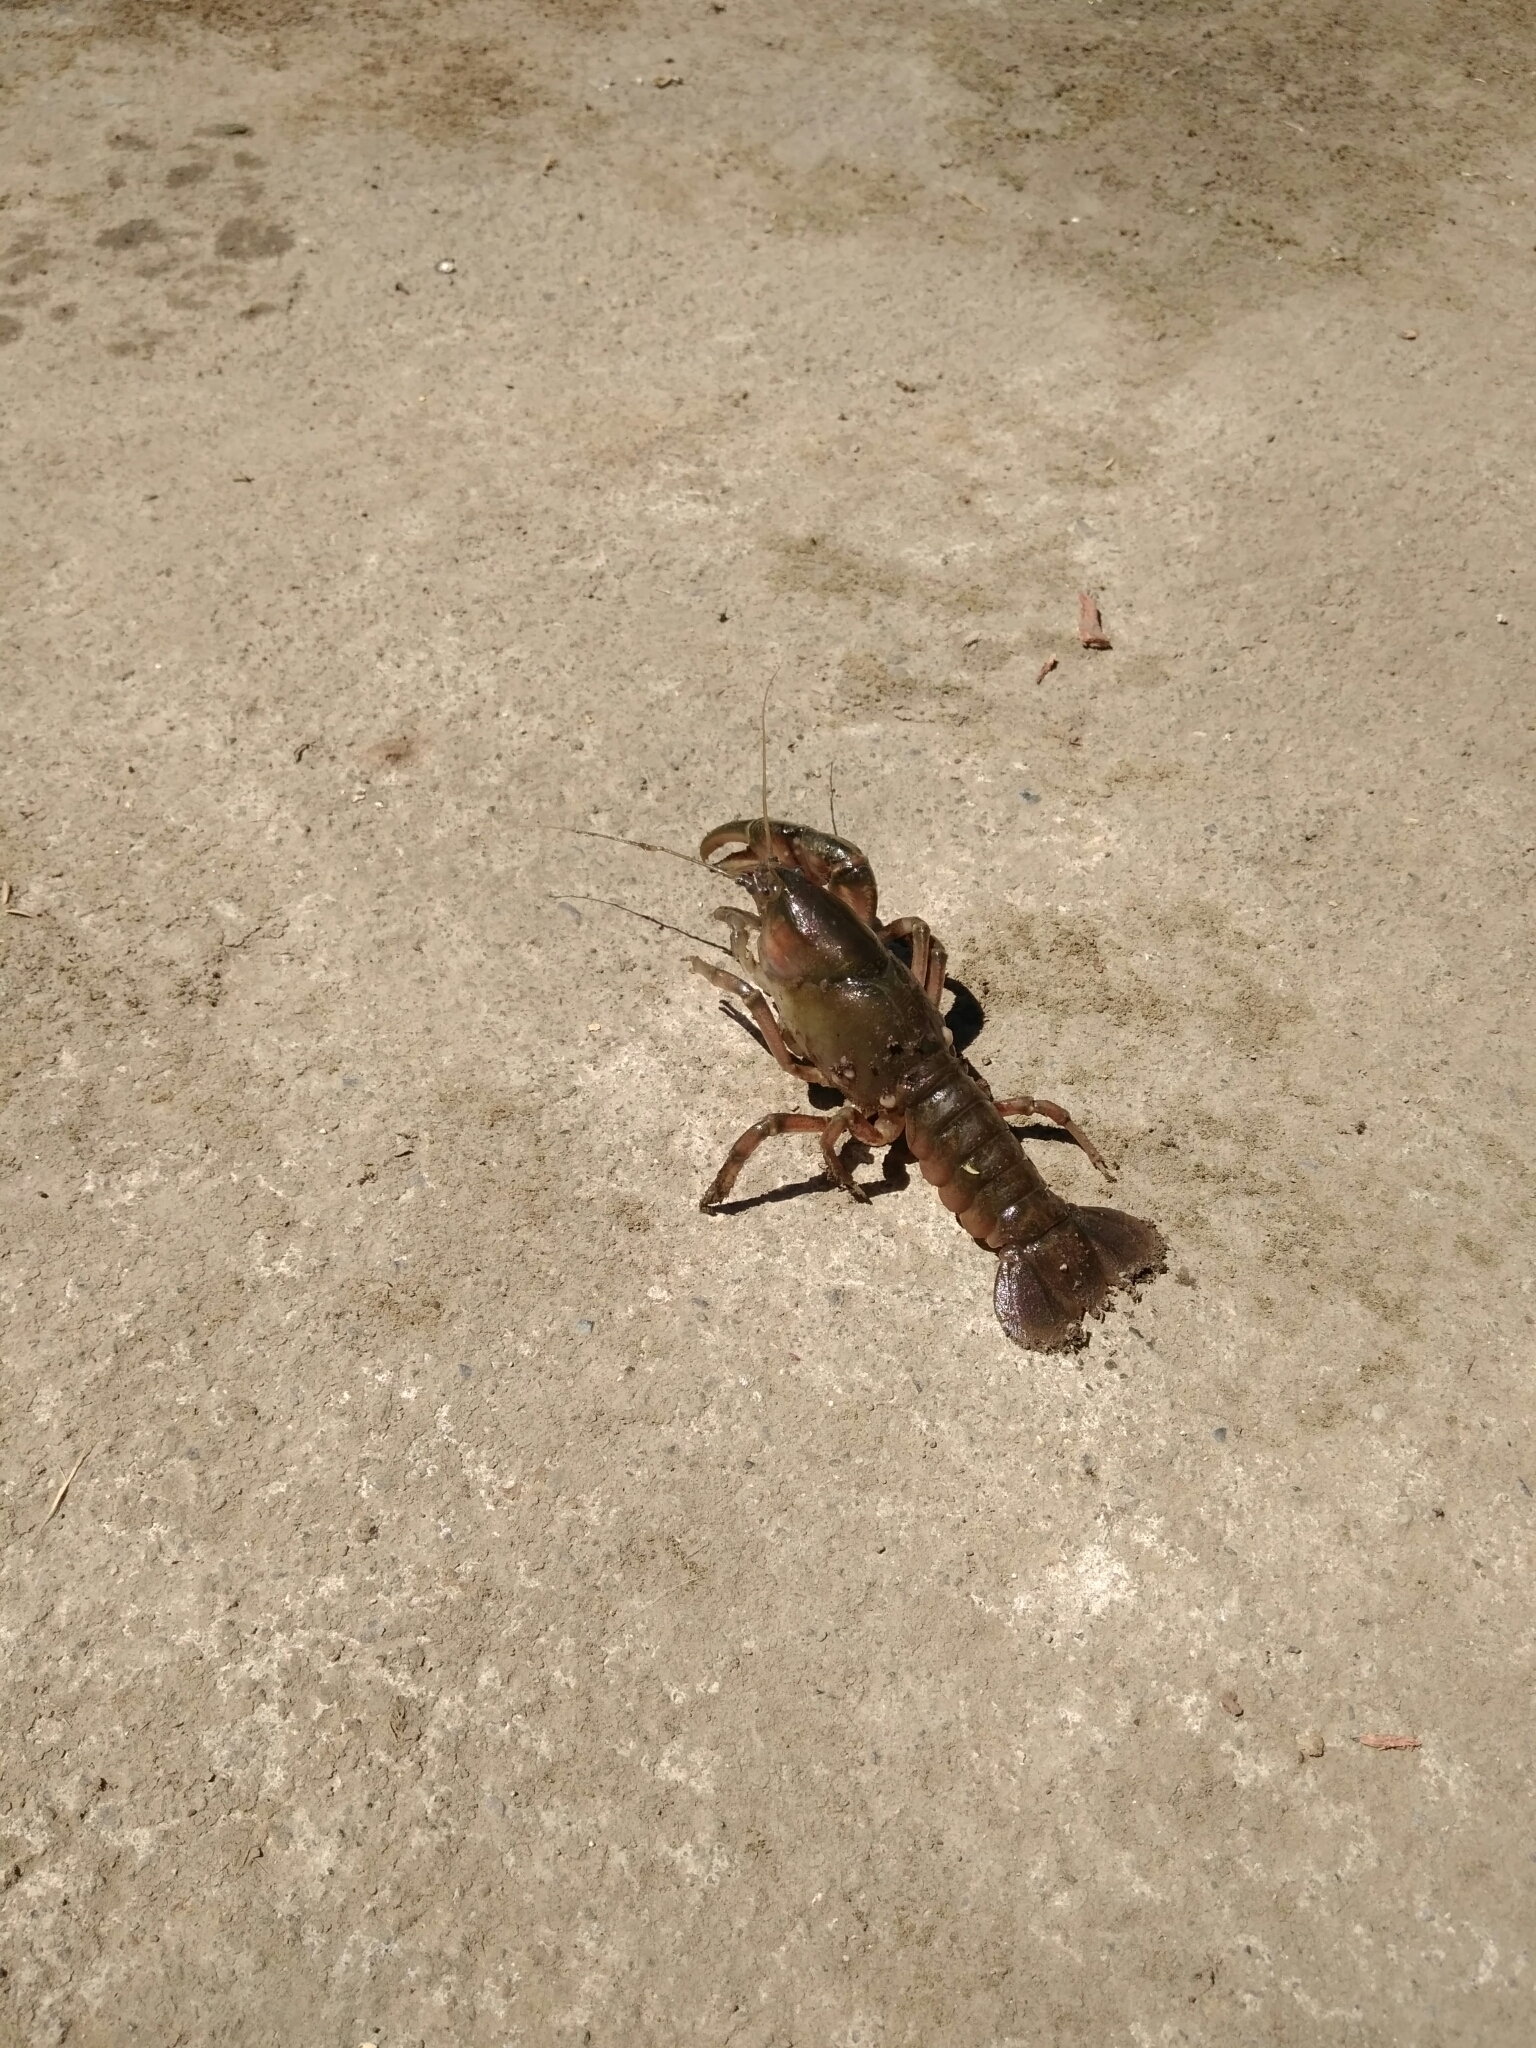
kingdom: Animalia
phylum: Arthropoda
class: Malacostraca
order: Decapoda
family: Parastacidae
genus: Parastacus
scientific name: Parastacus pugnax
